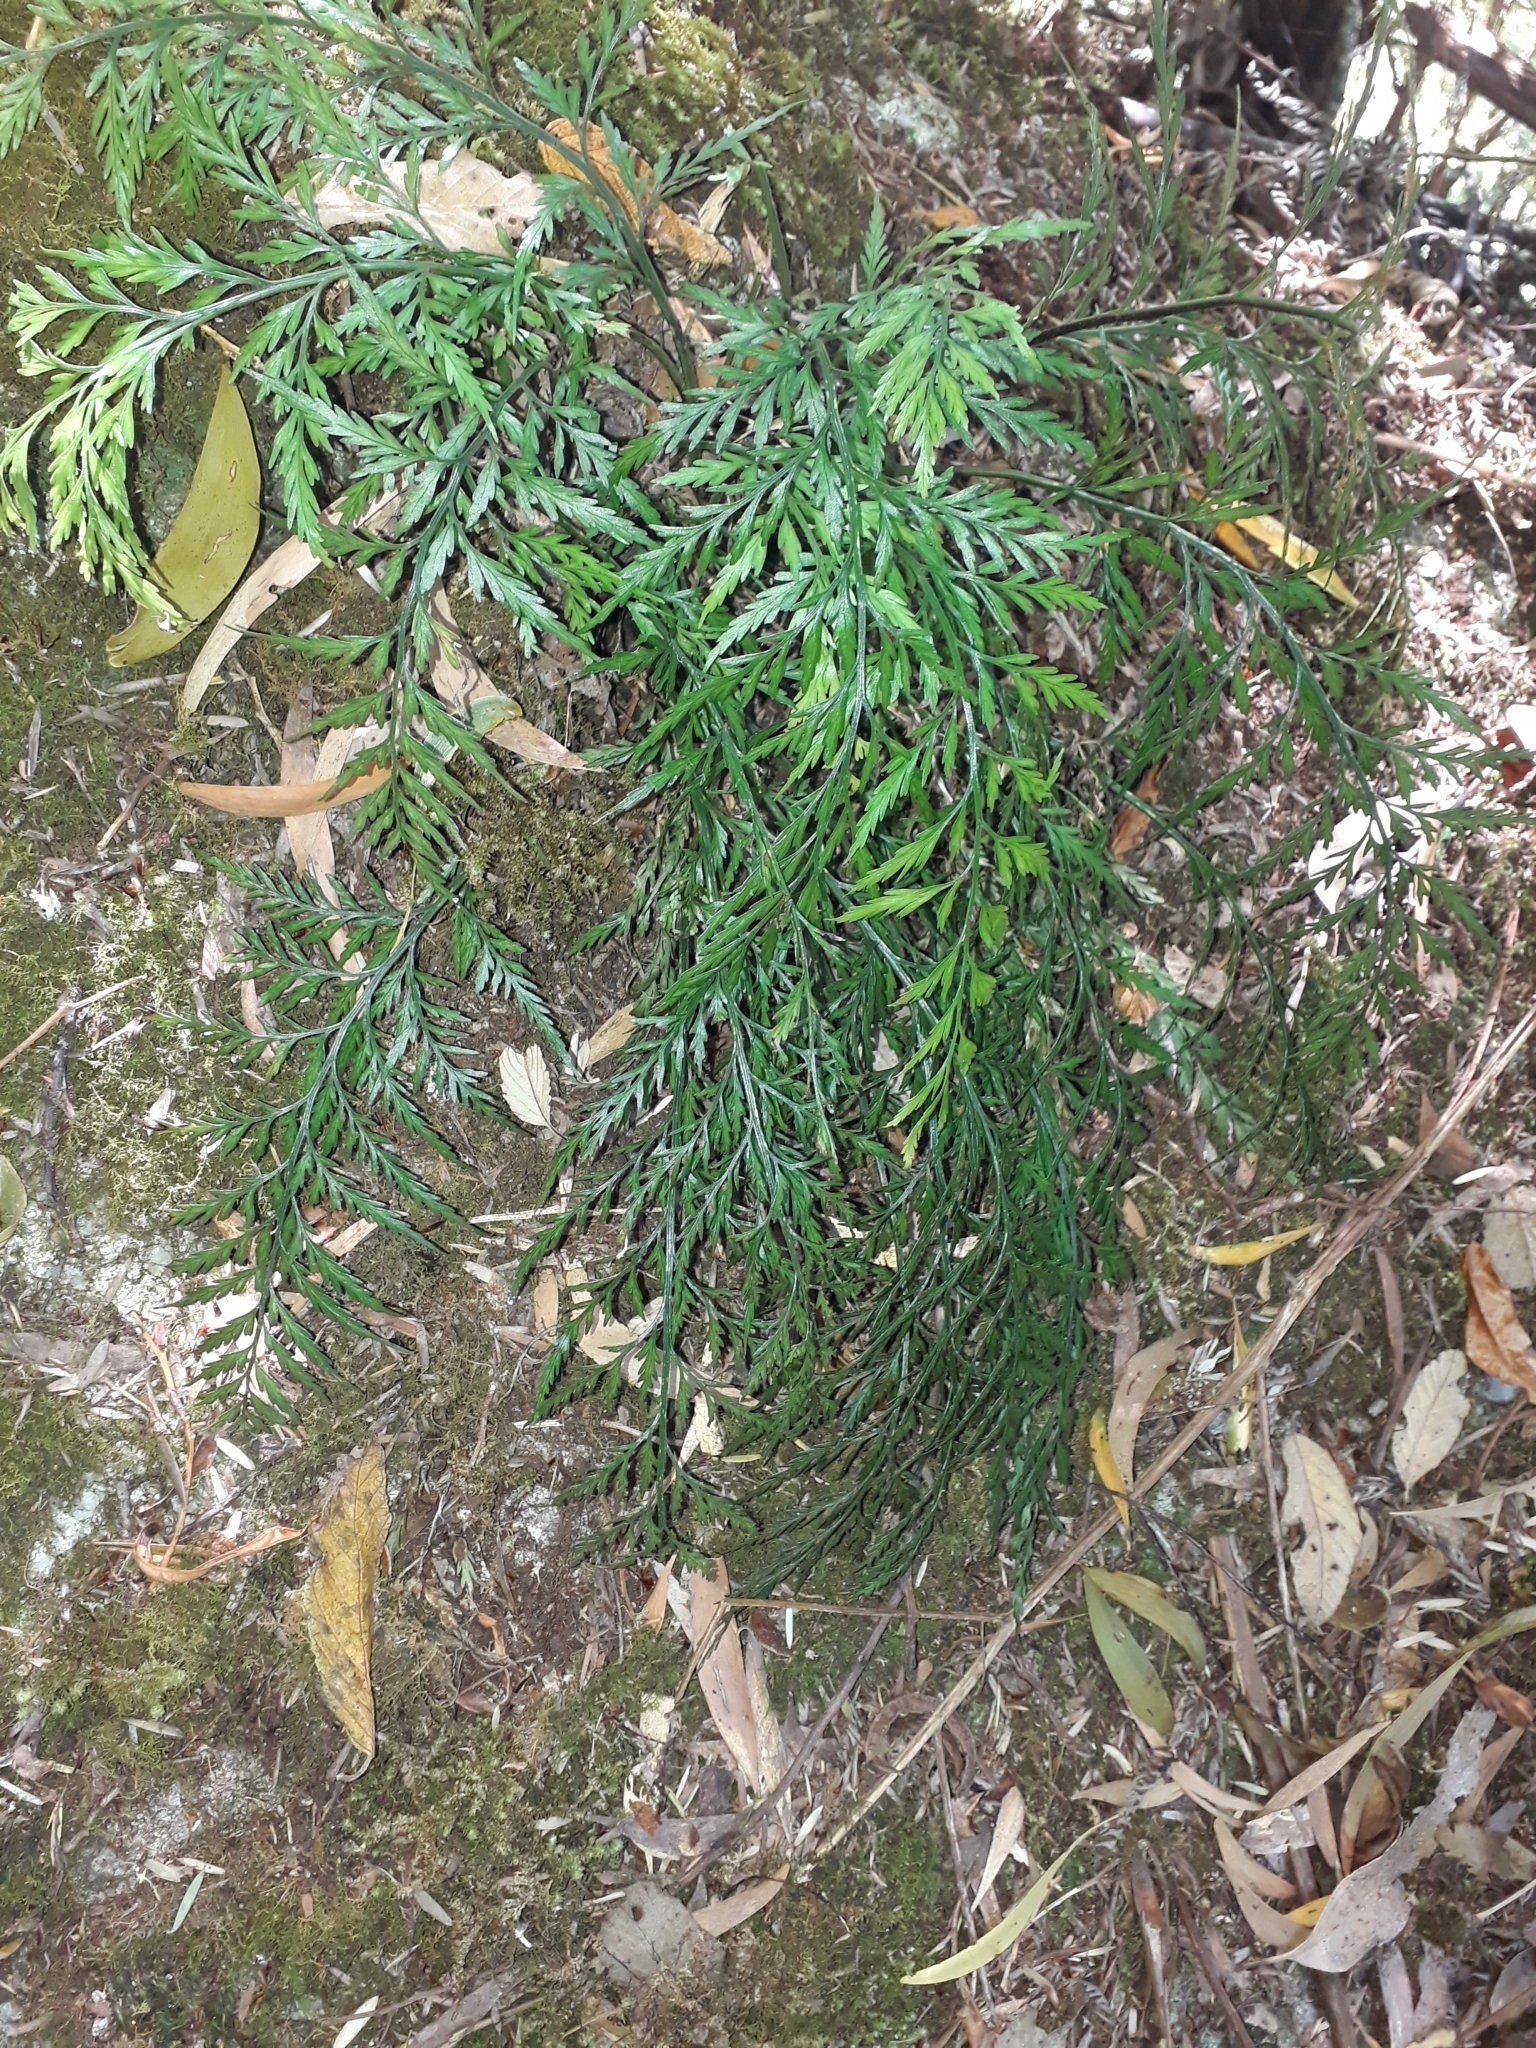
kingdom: Plantae
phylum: Tracheophyta
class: Polypodiopsida
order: Polypodiales
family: Aspleniaceae
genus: Asplenium
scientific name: Asplenium appendiculatum
